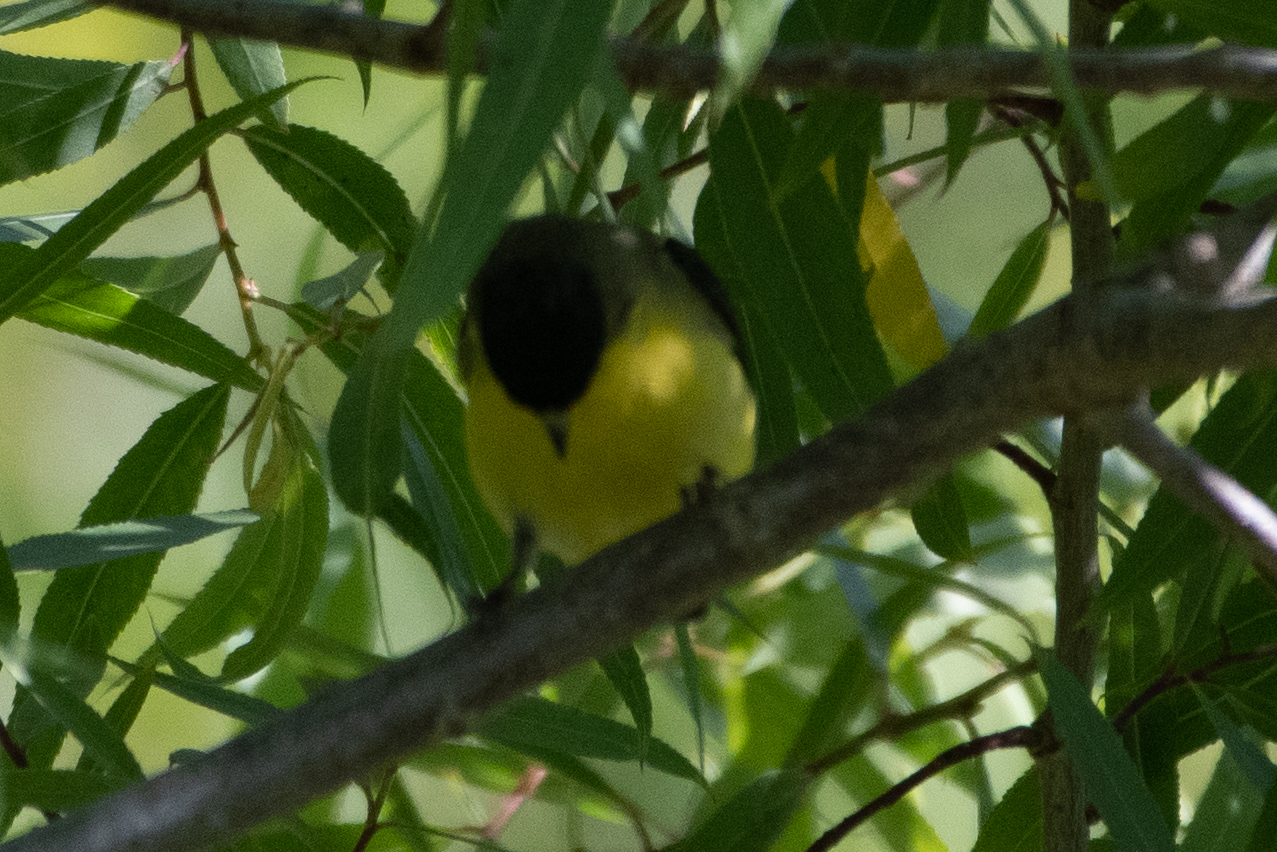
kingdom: Animalia
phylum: Chordata
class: Aves
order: Passeriformes
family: Fringillidae
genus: Spinus
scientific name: Spinus psaltria
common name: Lesser goldfinch
